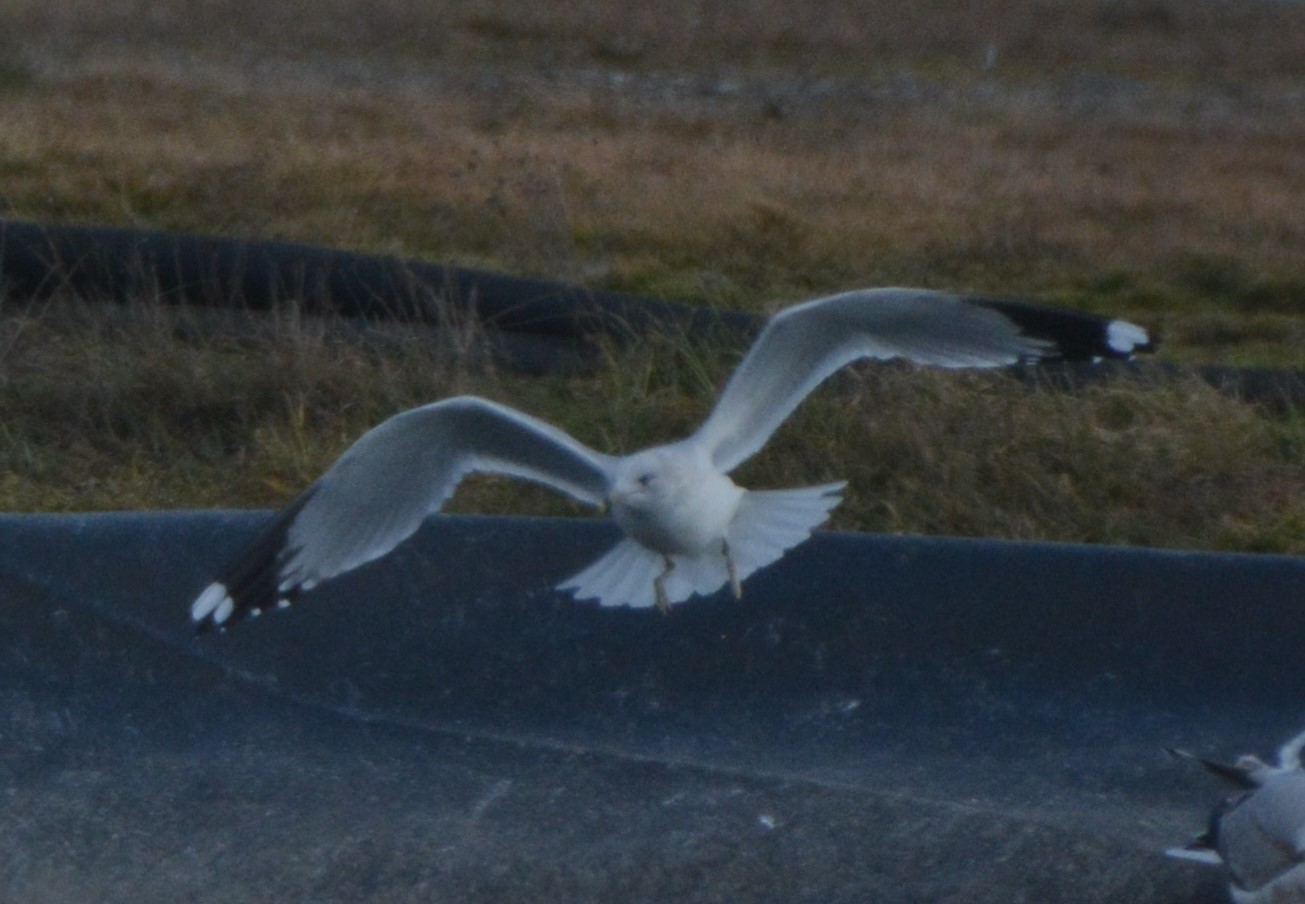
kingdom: Animalia
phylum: Chordata
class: Aves
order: Charadriiformes
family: Laridae
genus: Larus
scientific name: Larus delawarensis
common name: Ring-billed gull
